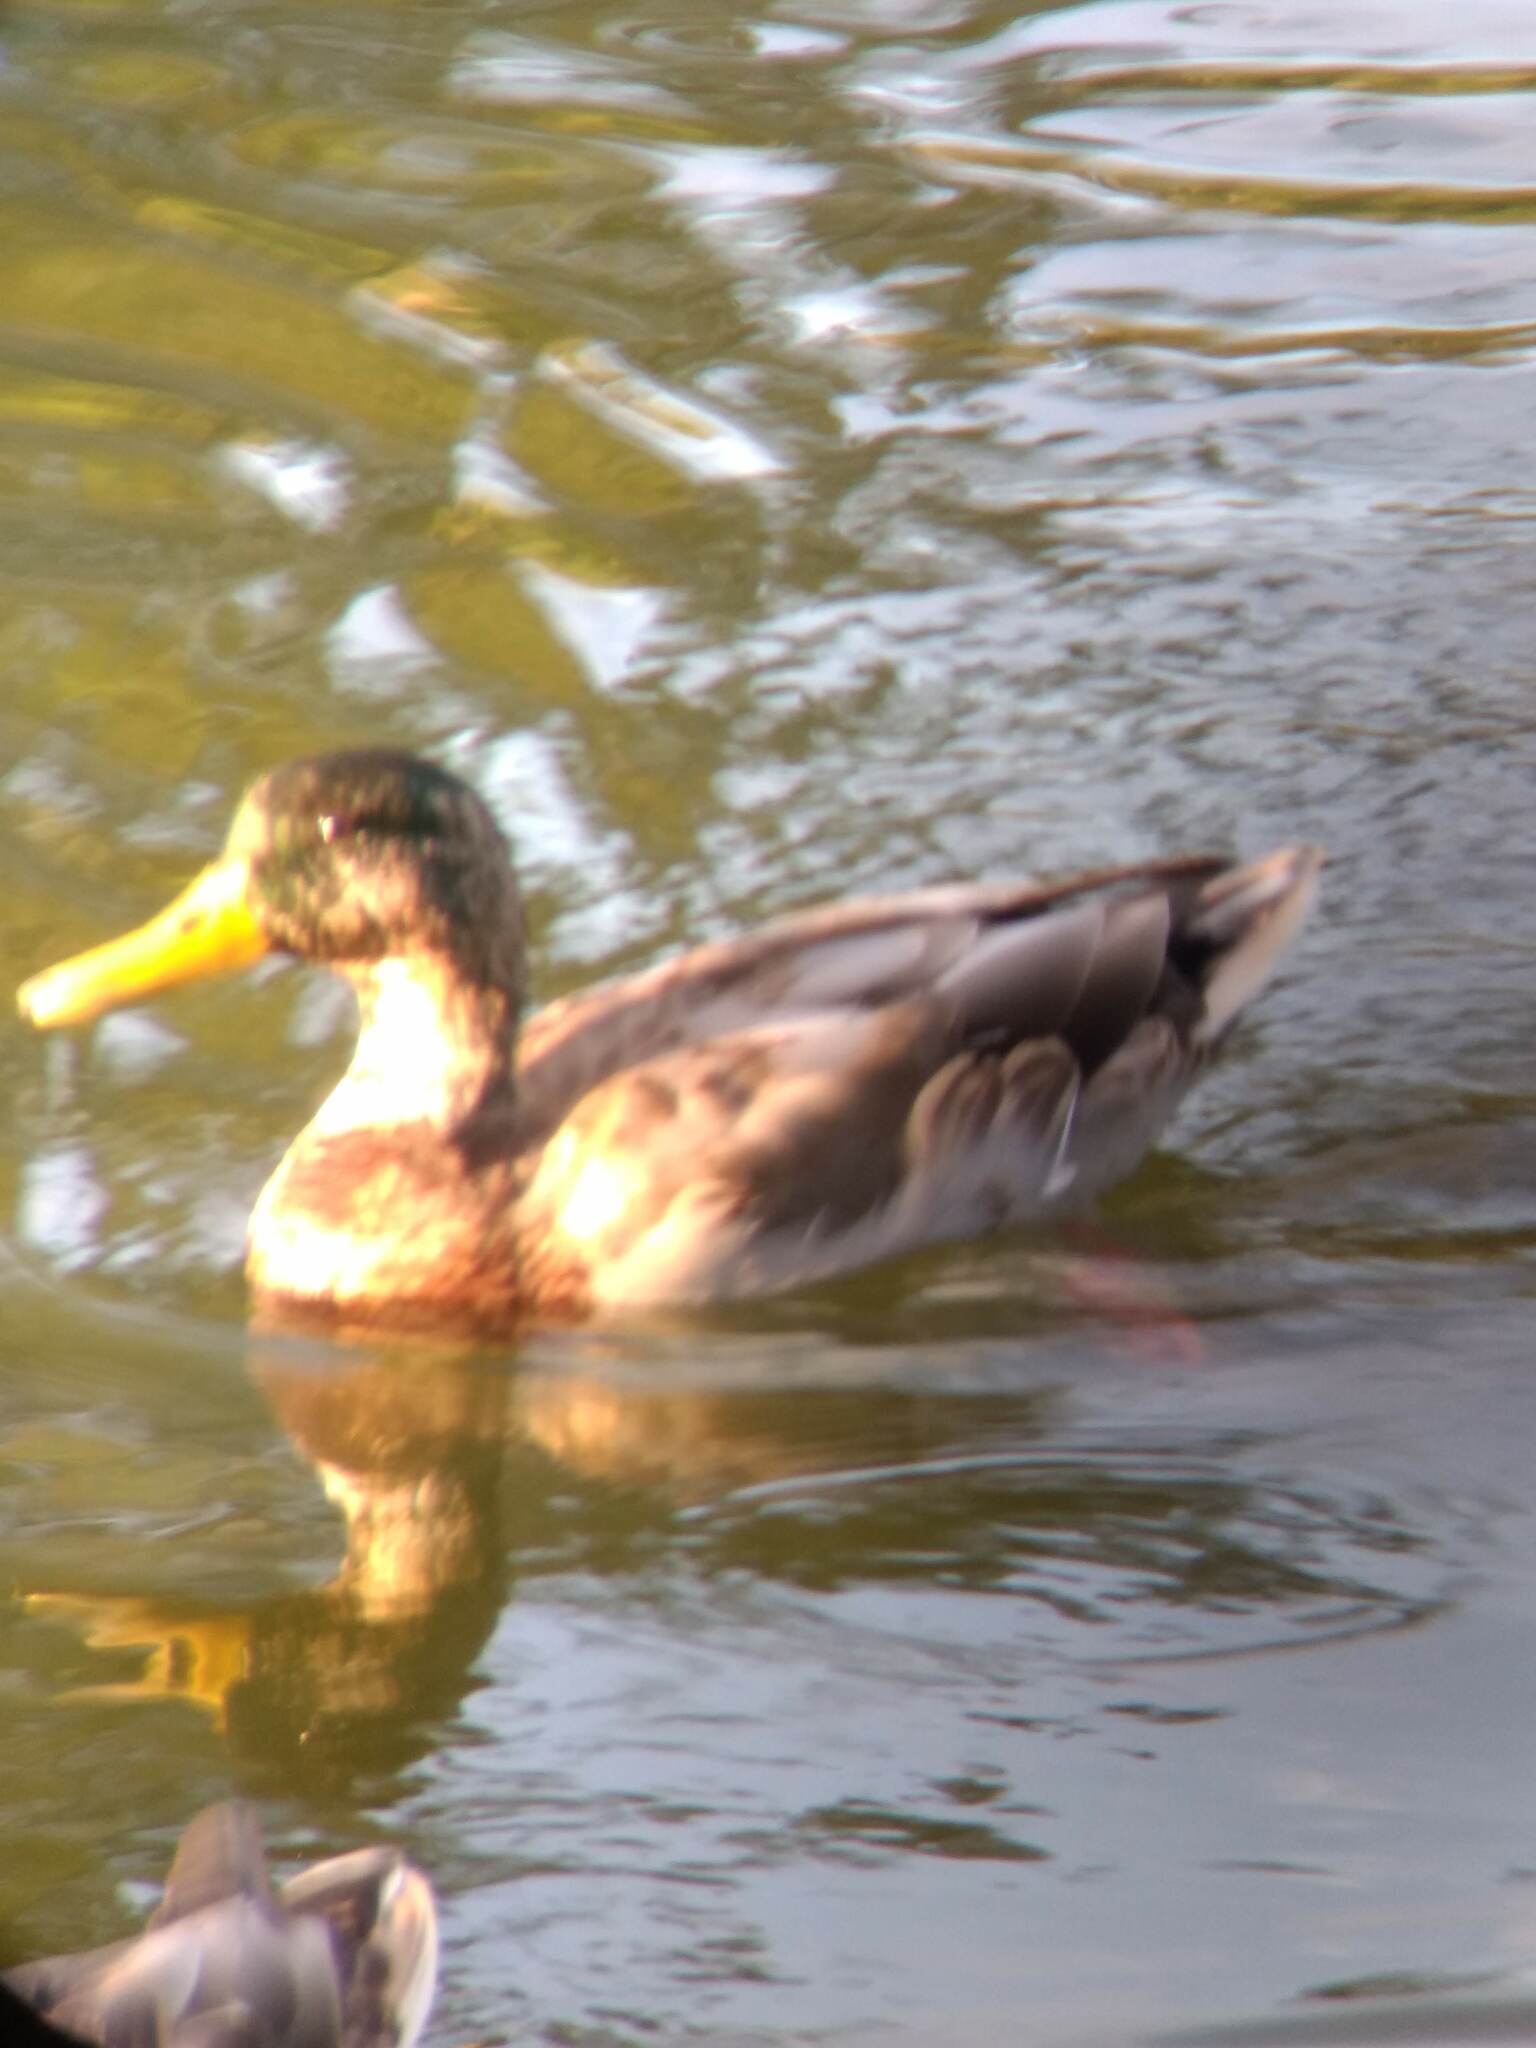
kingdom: Animalia
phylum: Chordata
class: Aves
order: Anseriformes
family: Anatidae
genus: Anas
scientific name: Anas platyrhynchos
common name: Mallard
